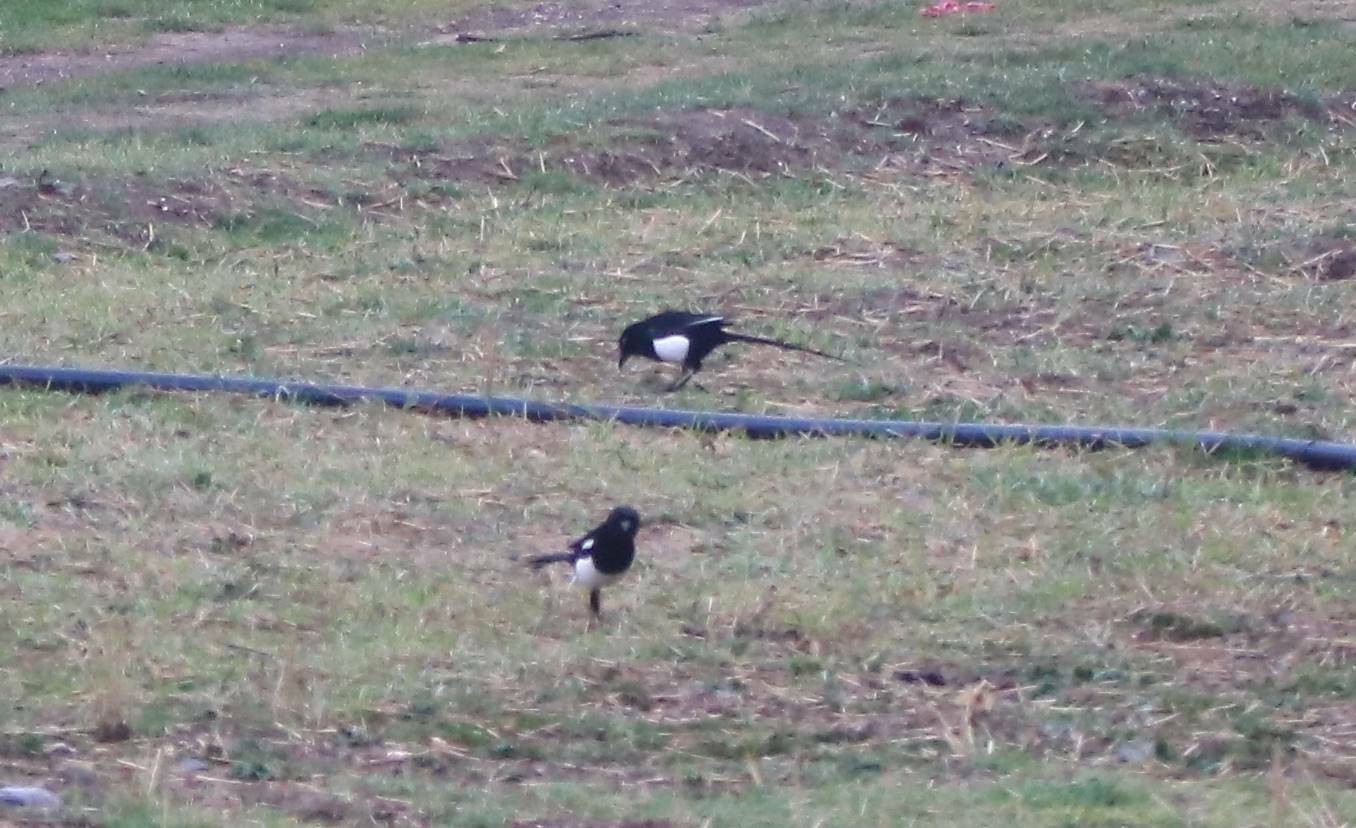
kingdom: Animalia
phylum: Chordata
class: Aves
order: Passeriformes
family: Corvidae
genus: Pica
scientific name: Pica mauritanica
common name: Maghreb magpie
